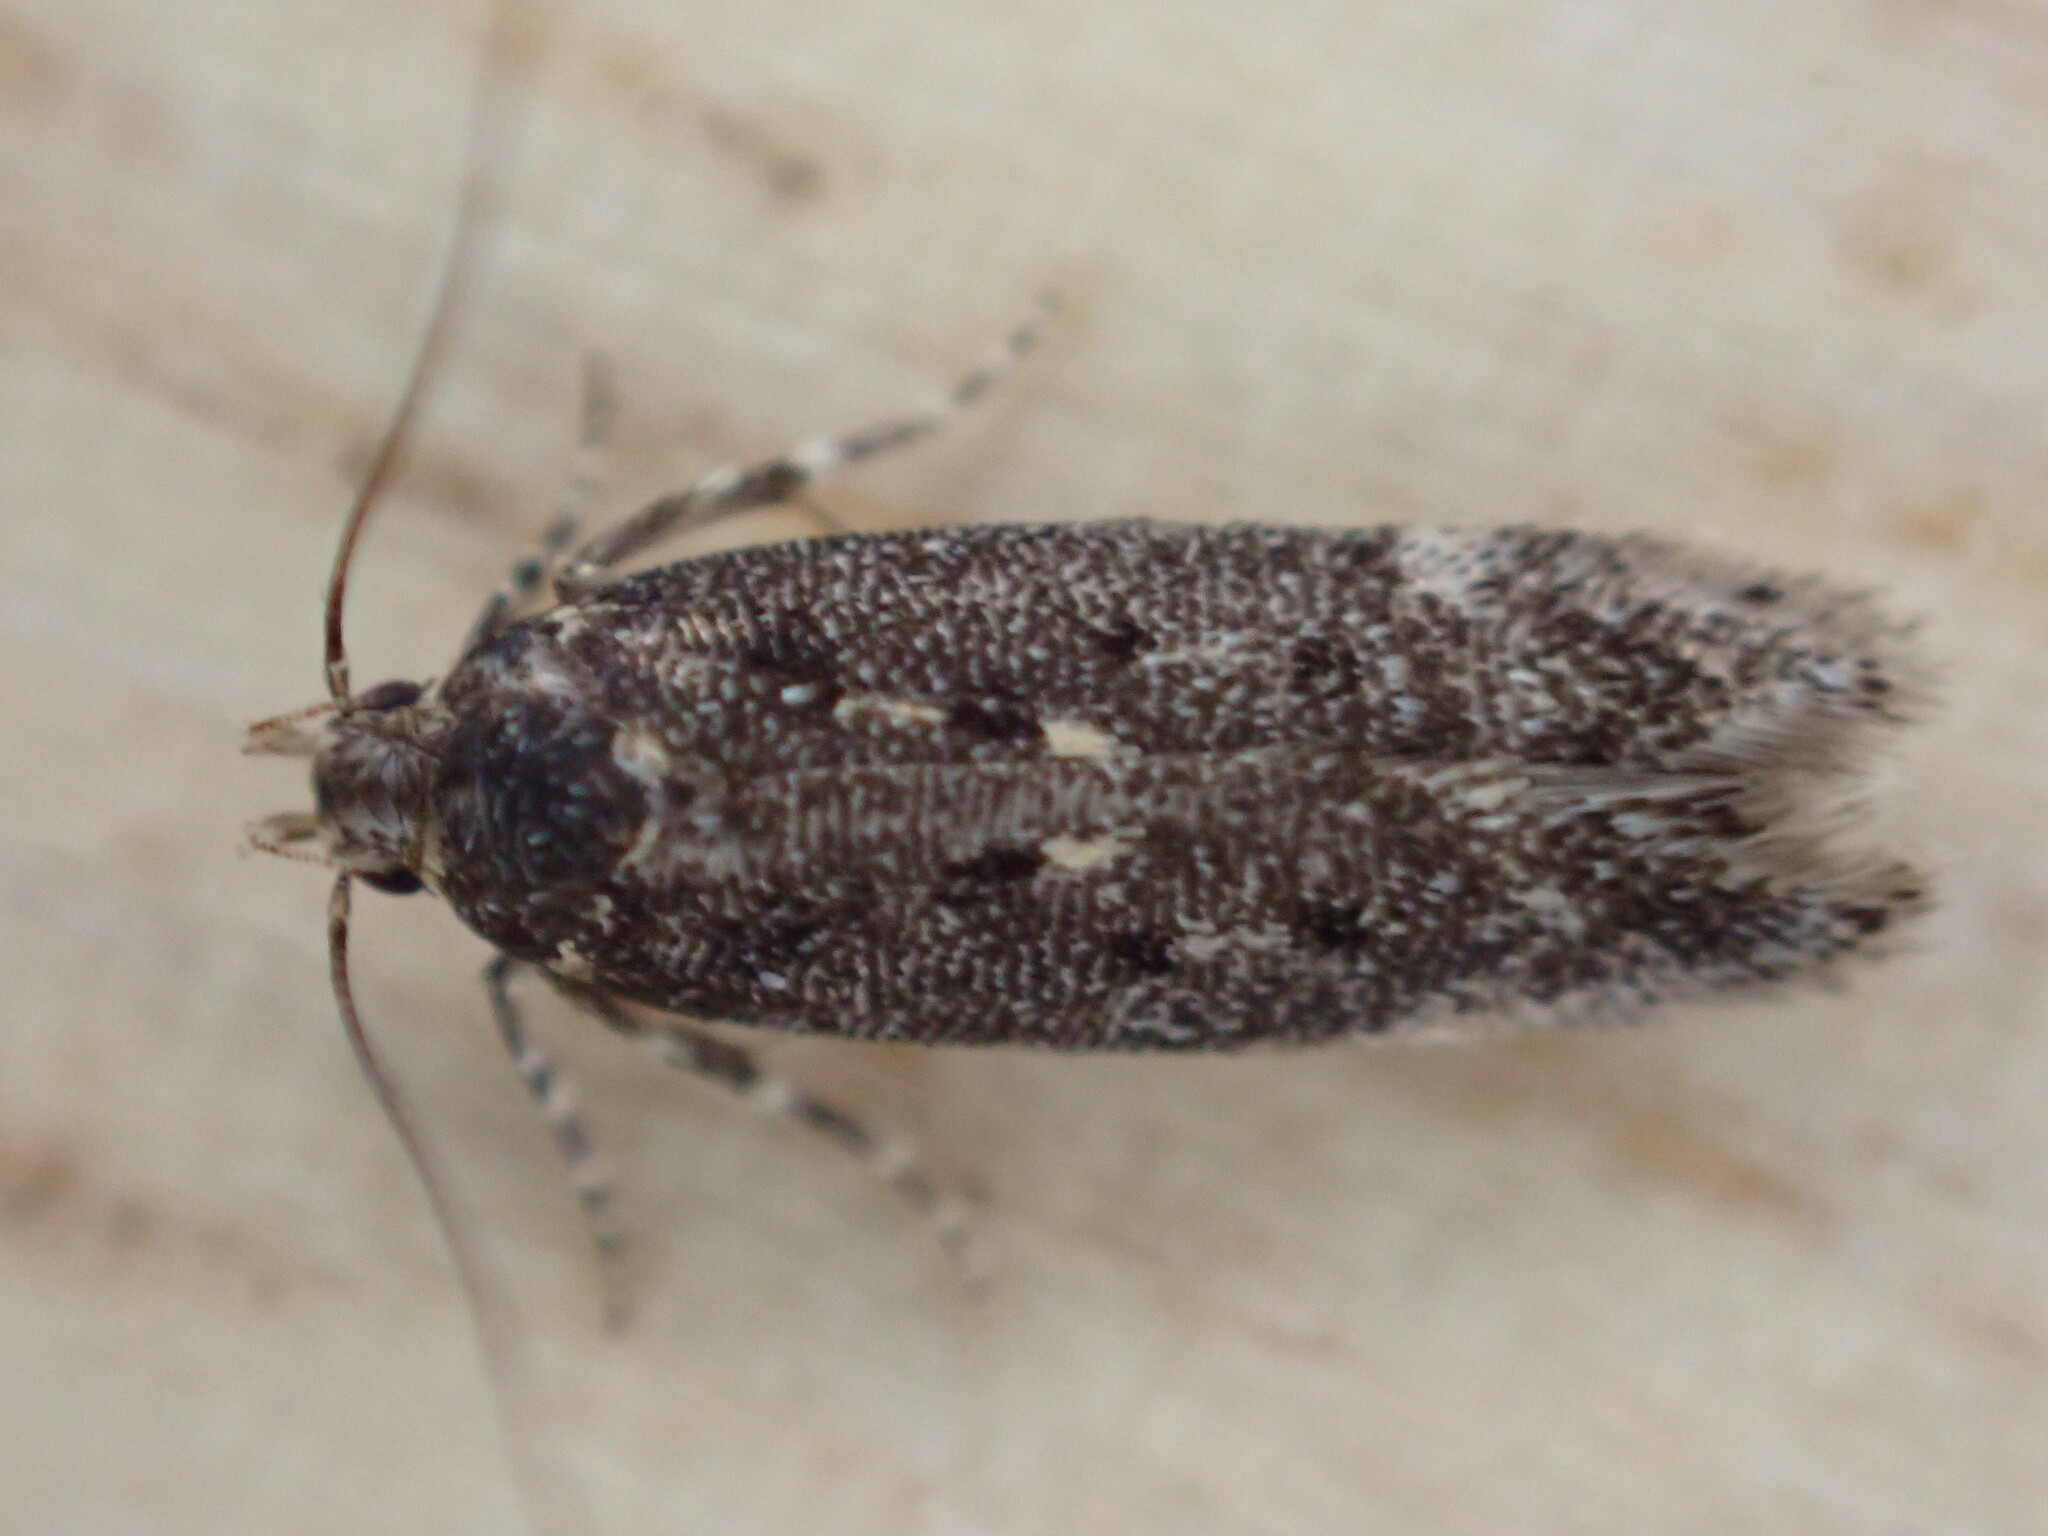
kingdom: Animalia
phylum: Arthropoda
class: Insecta
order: Lepidoptera
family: Gelechiidae
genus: Bryotropha
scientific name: Bryotropha affinis
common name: Dark groundling
